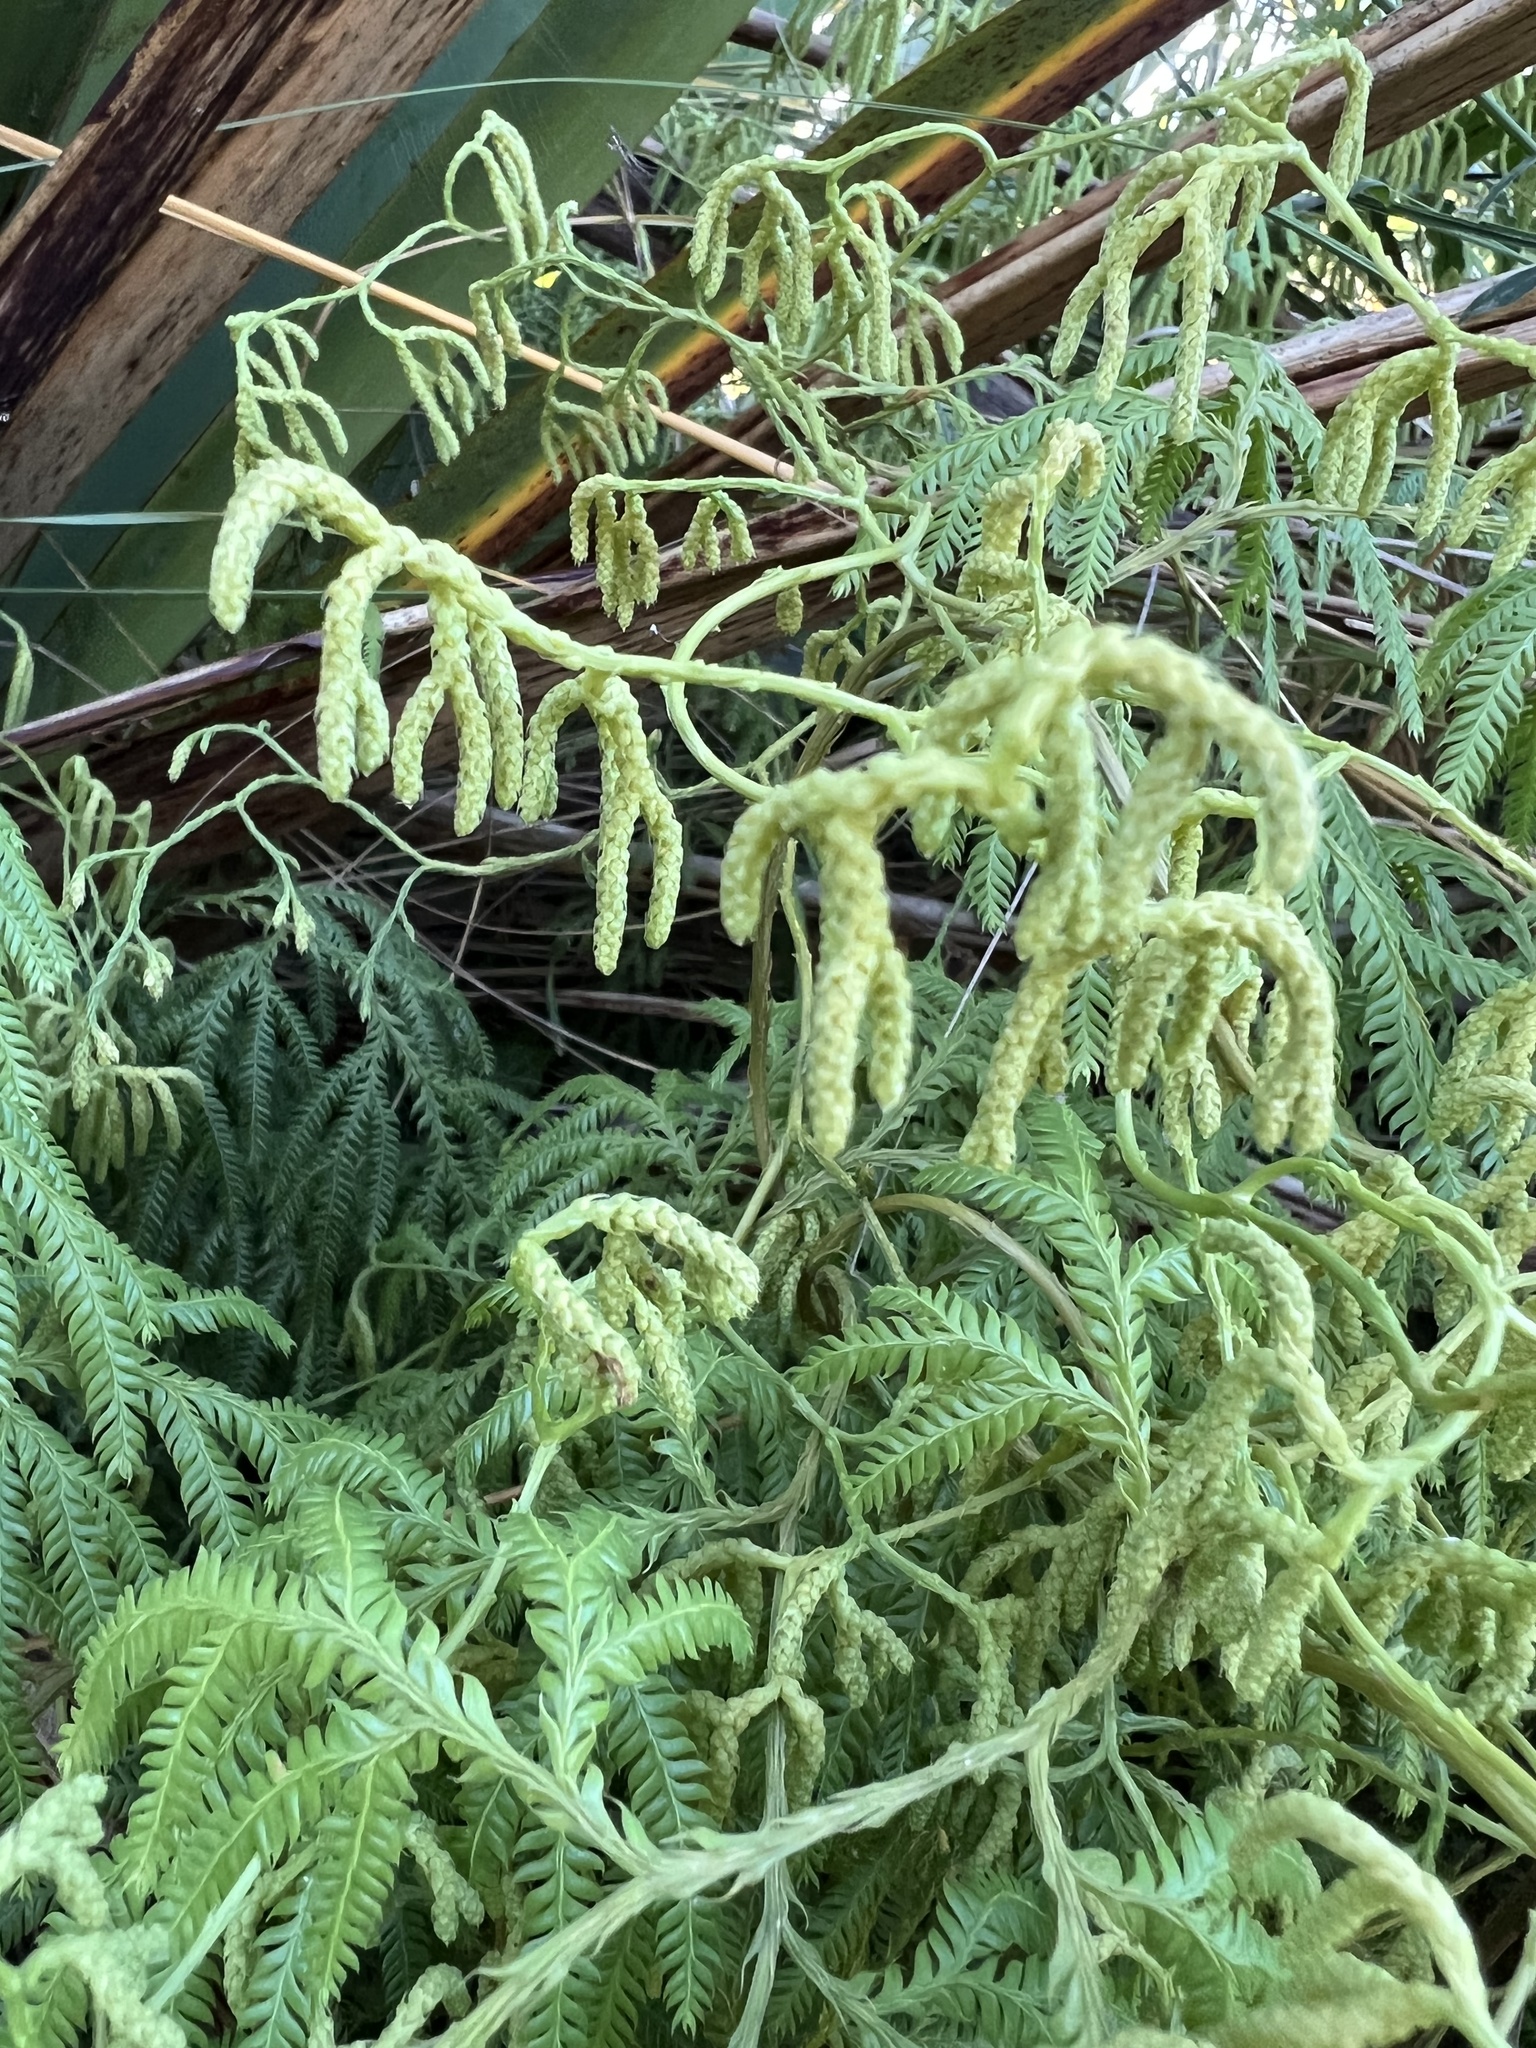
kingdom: Plantae
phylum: Tracheophyta
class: Lycopodiopsida
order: Lycopodiales
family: Lycopodiaceae
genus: Lycopodium
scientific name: Lycopodium volubile
